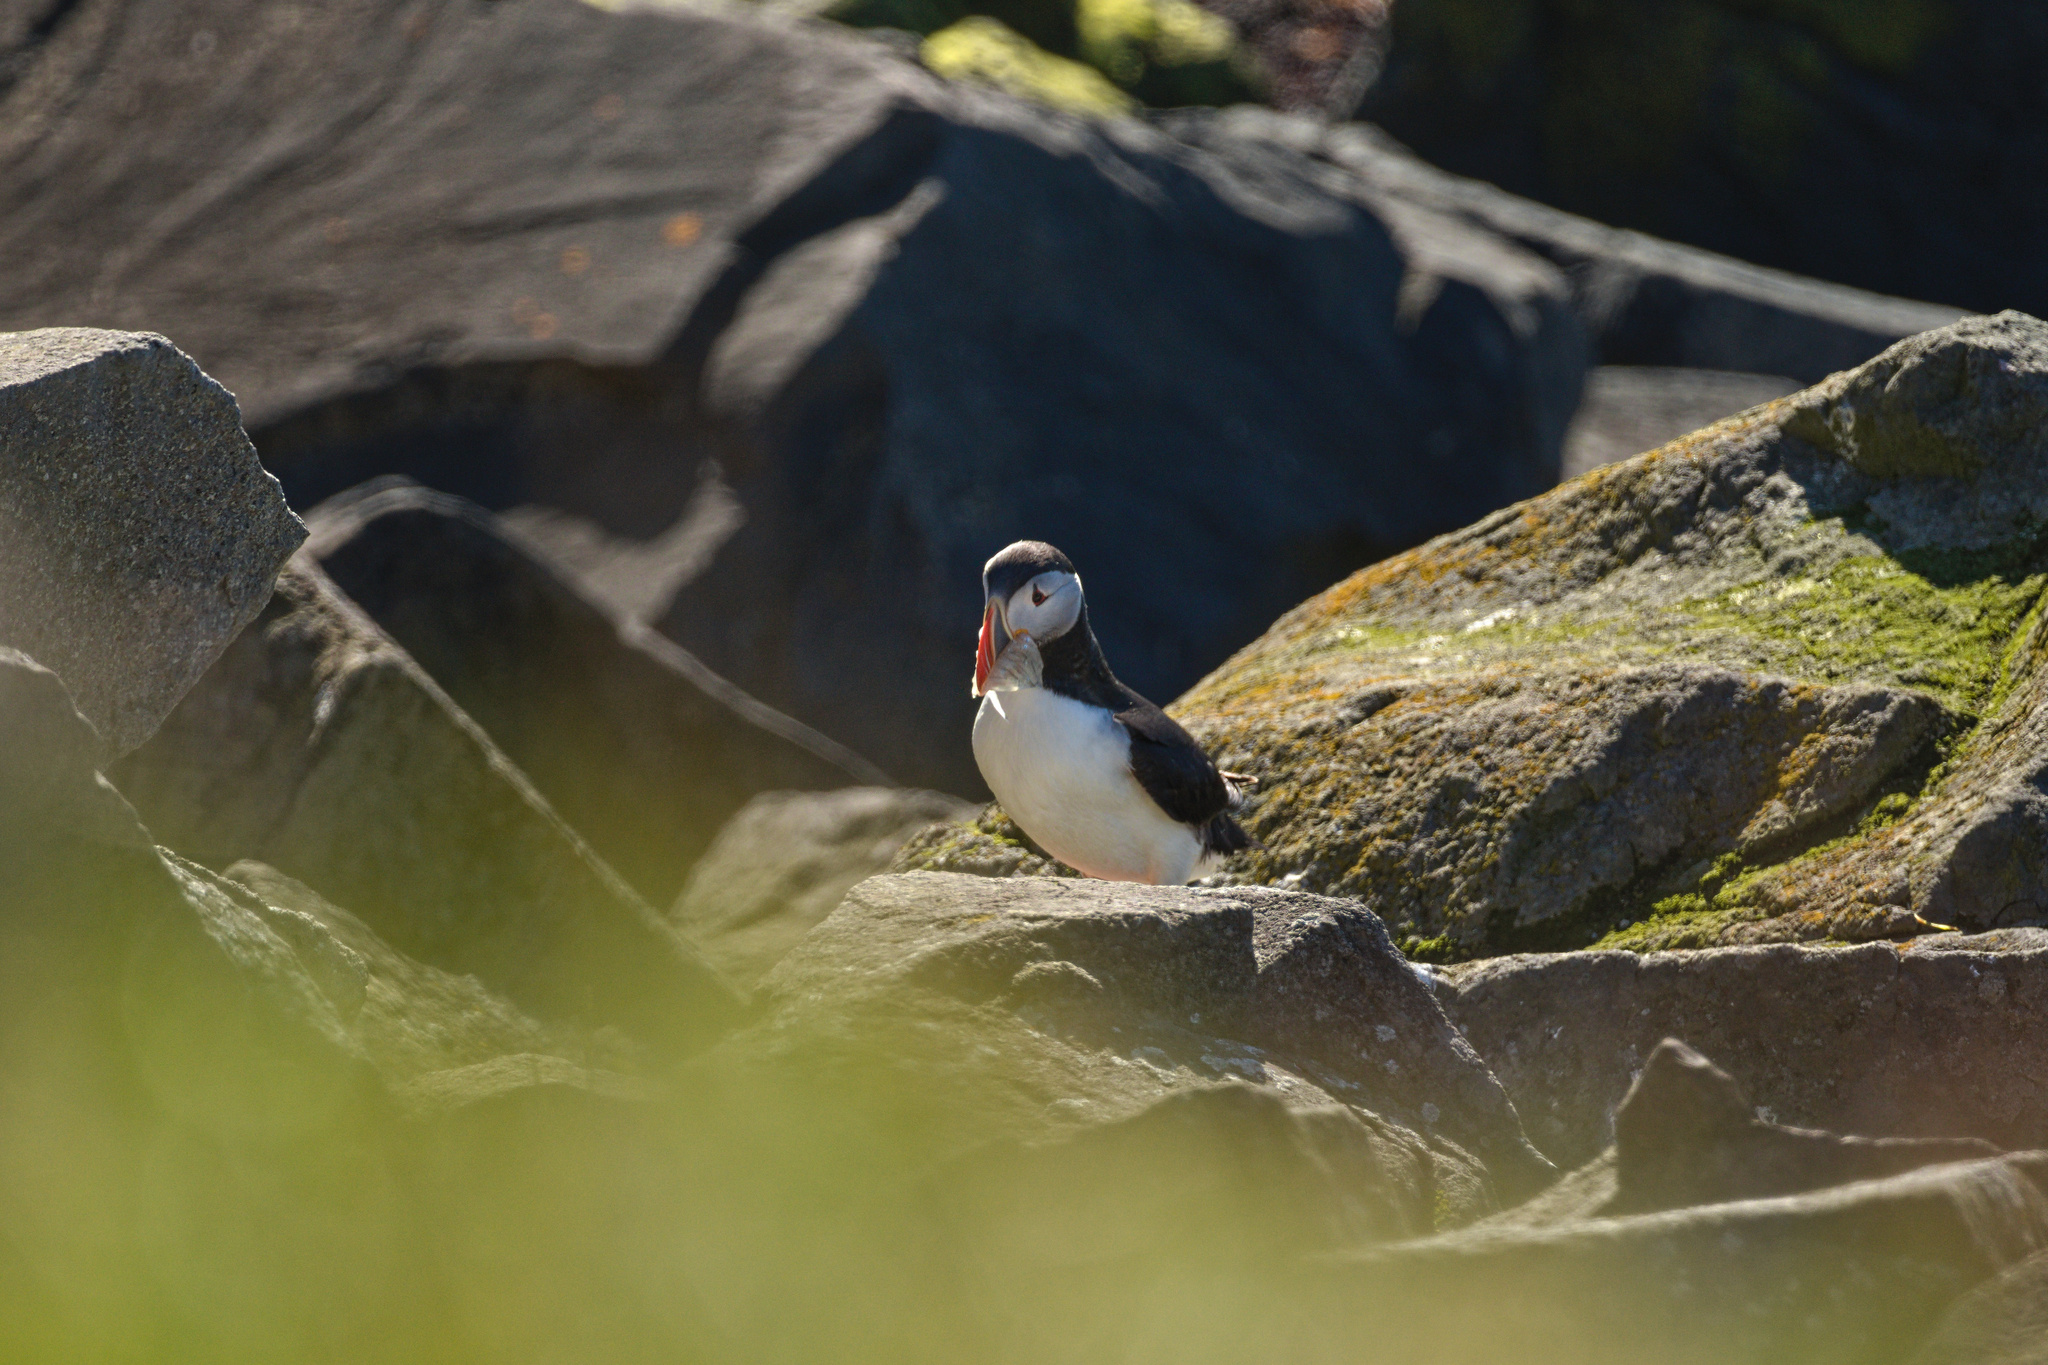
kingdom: Animalia
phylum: Chordata
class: Aves
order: Charadriiformes
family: Alcidae
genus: Fratercula
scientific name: Fratercula arctica
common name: Atlantic puffin
